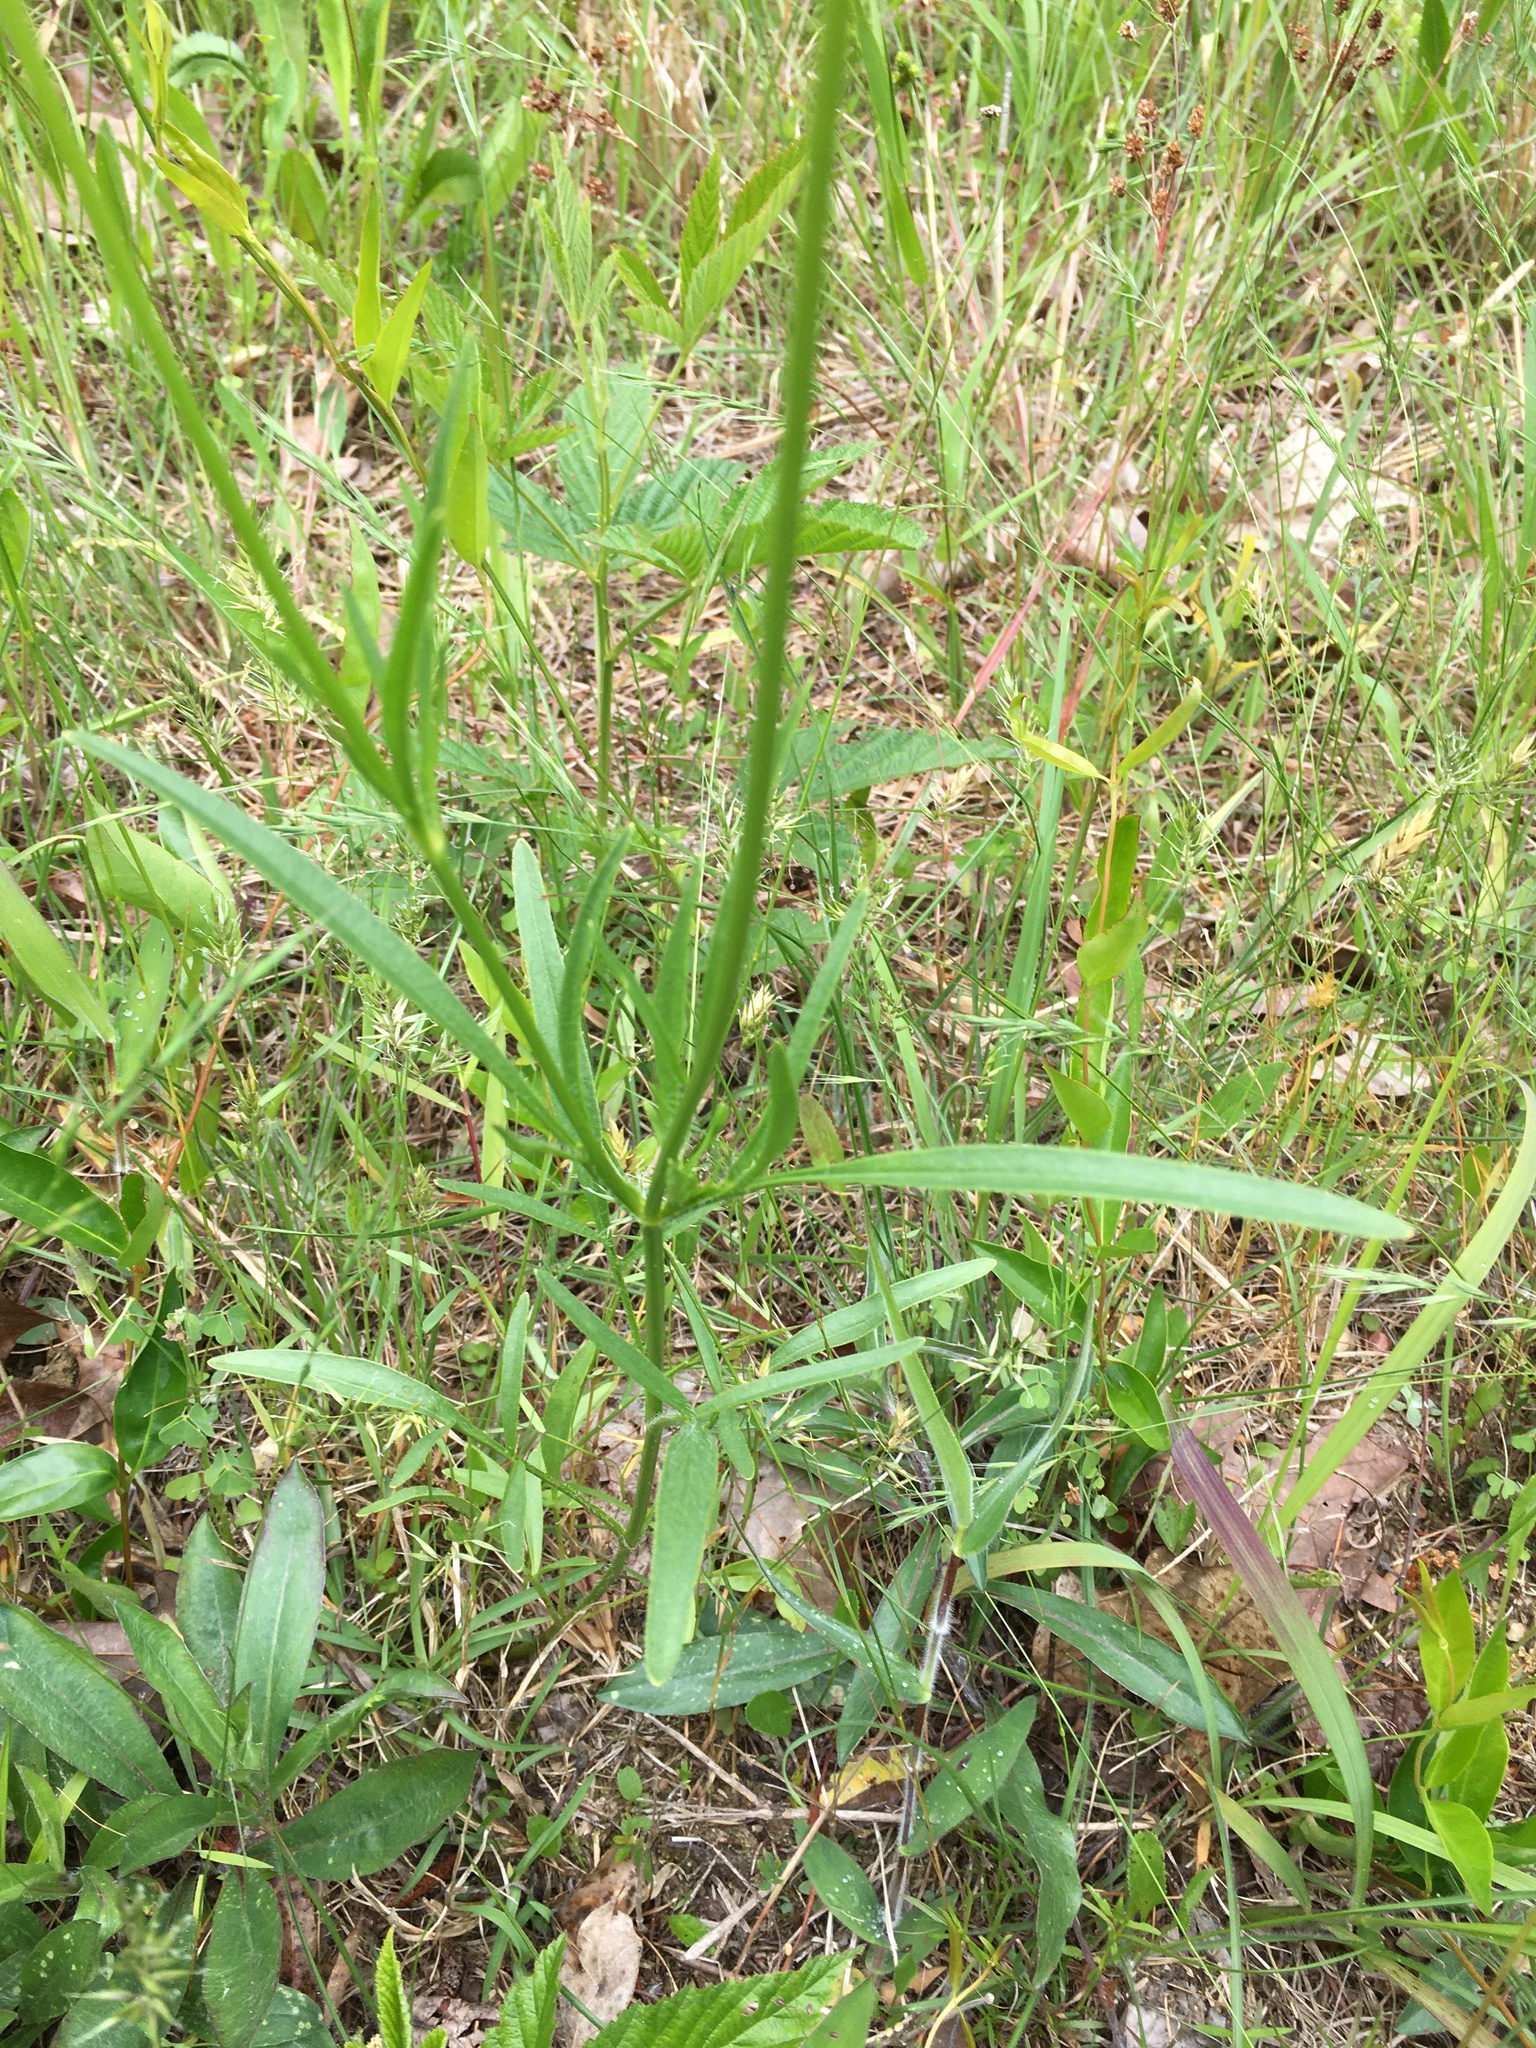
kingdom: Plantae
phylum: Tracheophyta
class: Magnoliopsida
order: Asterales
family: Asteraceae
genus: Coreopsis
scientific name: Coreopsis lanceolata
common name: Garden coreopsis
